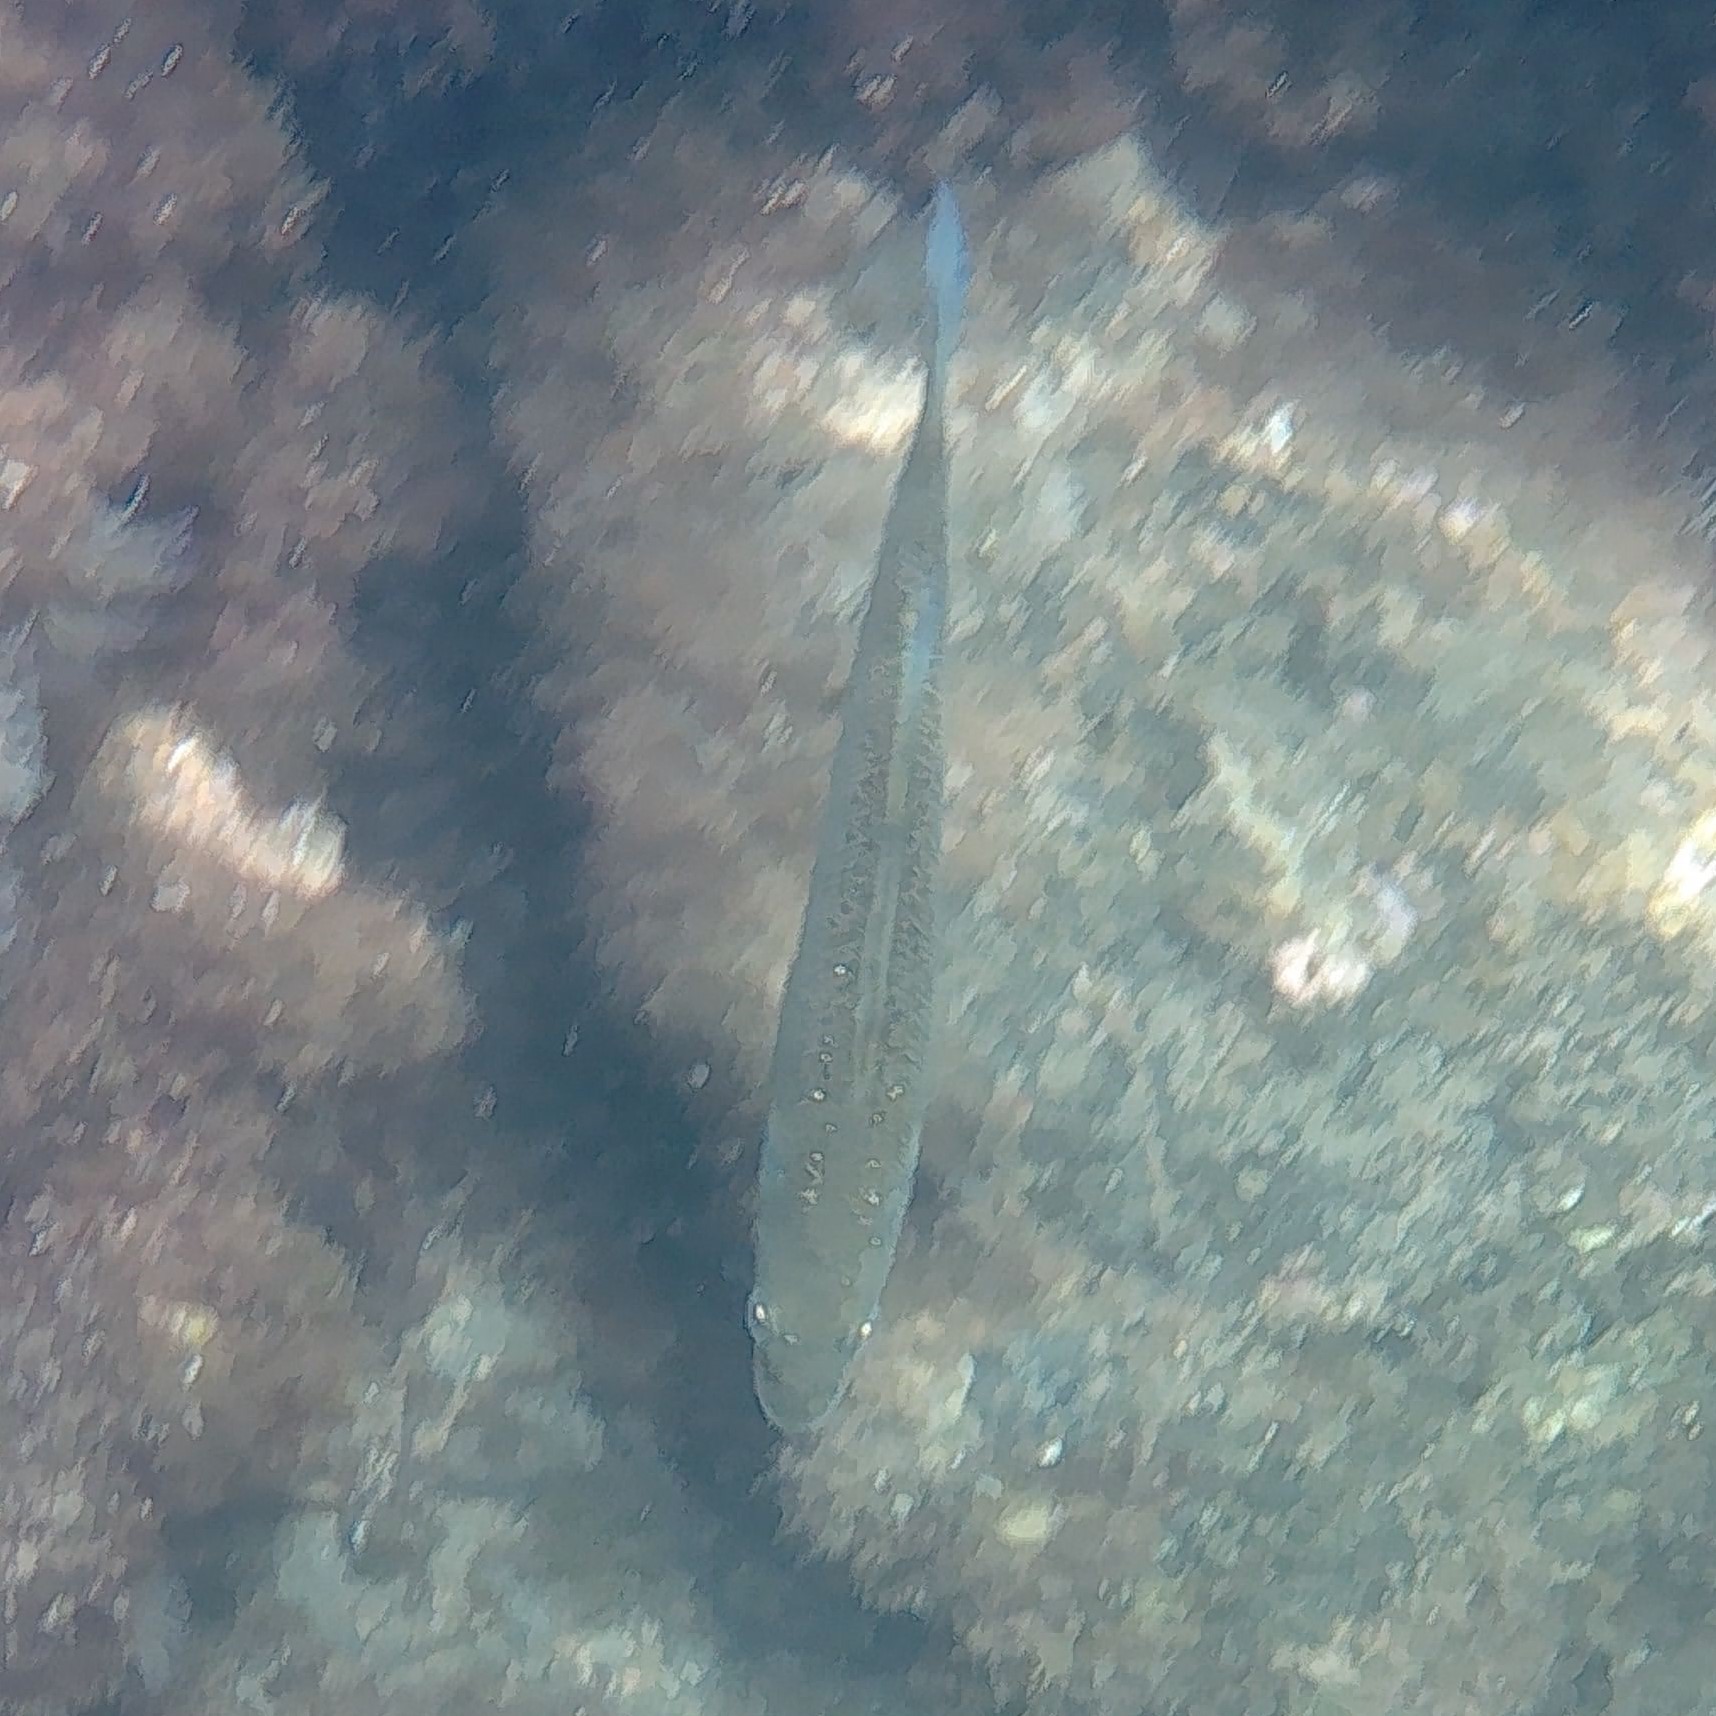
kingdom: Animalia
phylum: Chordata
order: Perciformes
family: Moronidae
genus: Dicentrarchus
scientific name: Dicentrarchus labrax
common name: European seabass
